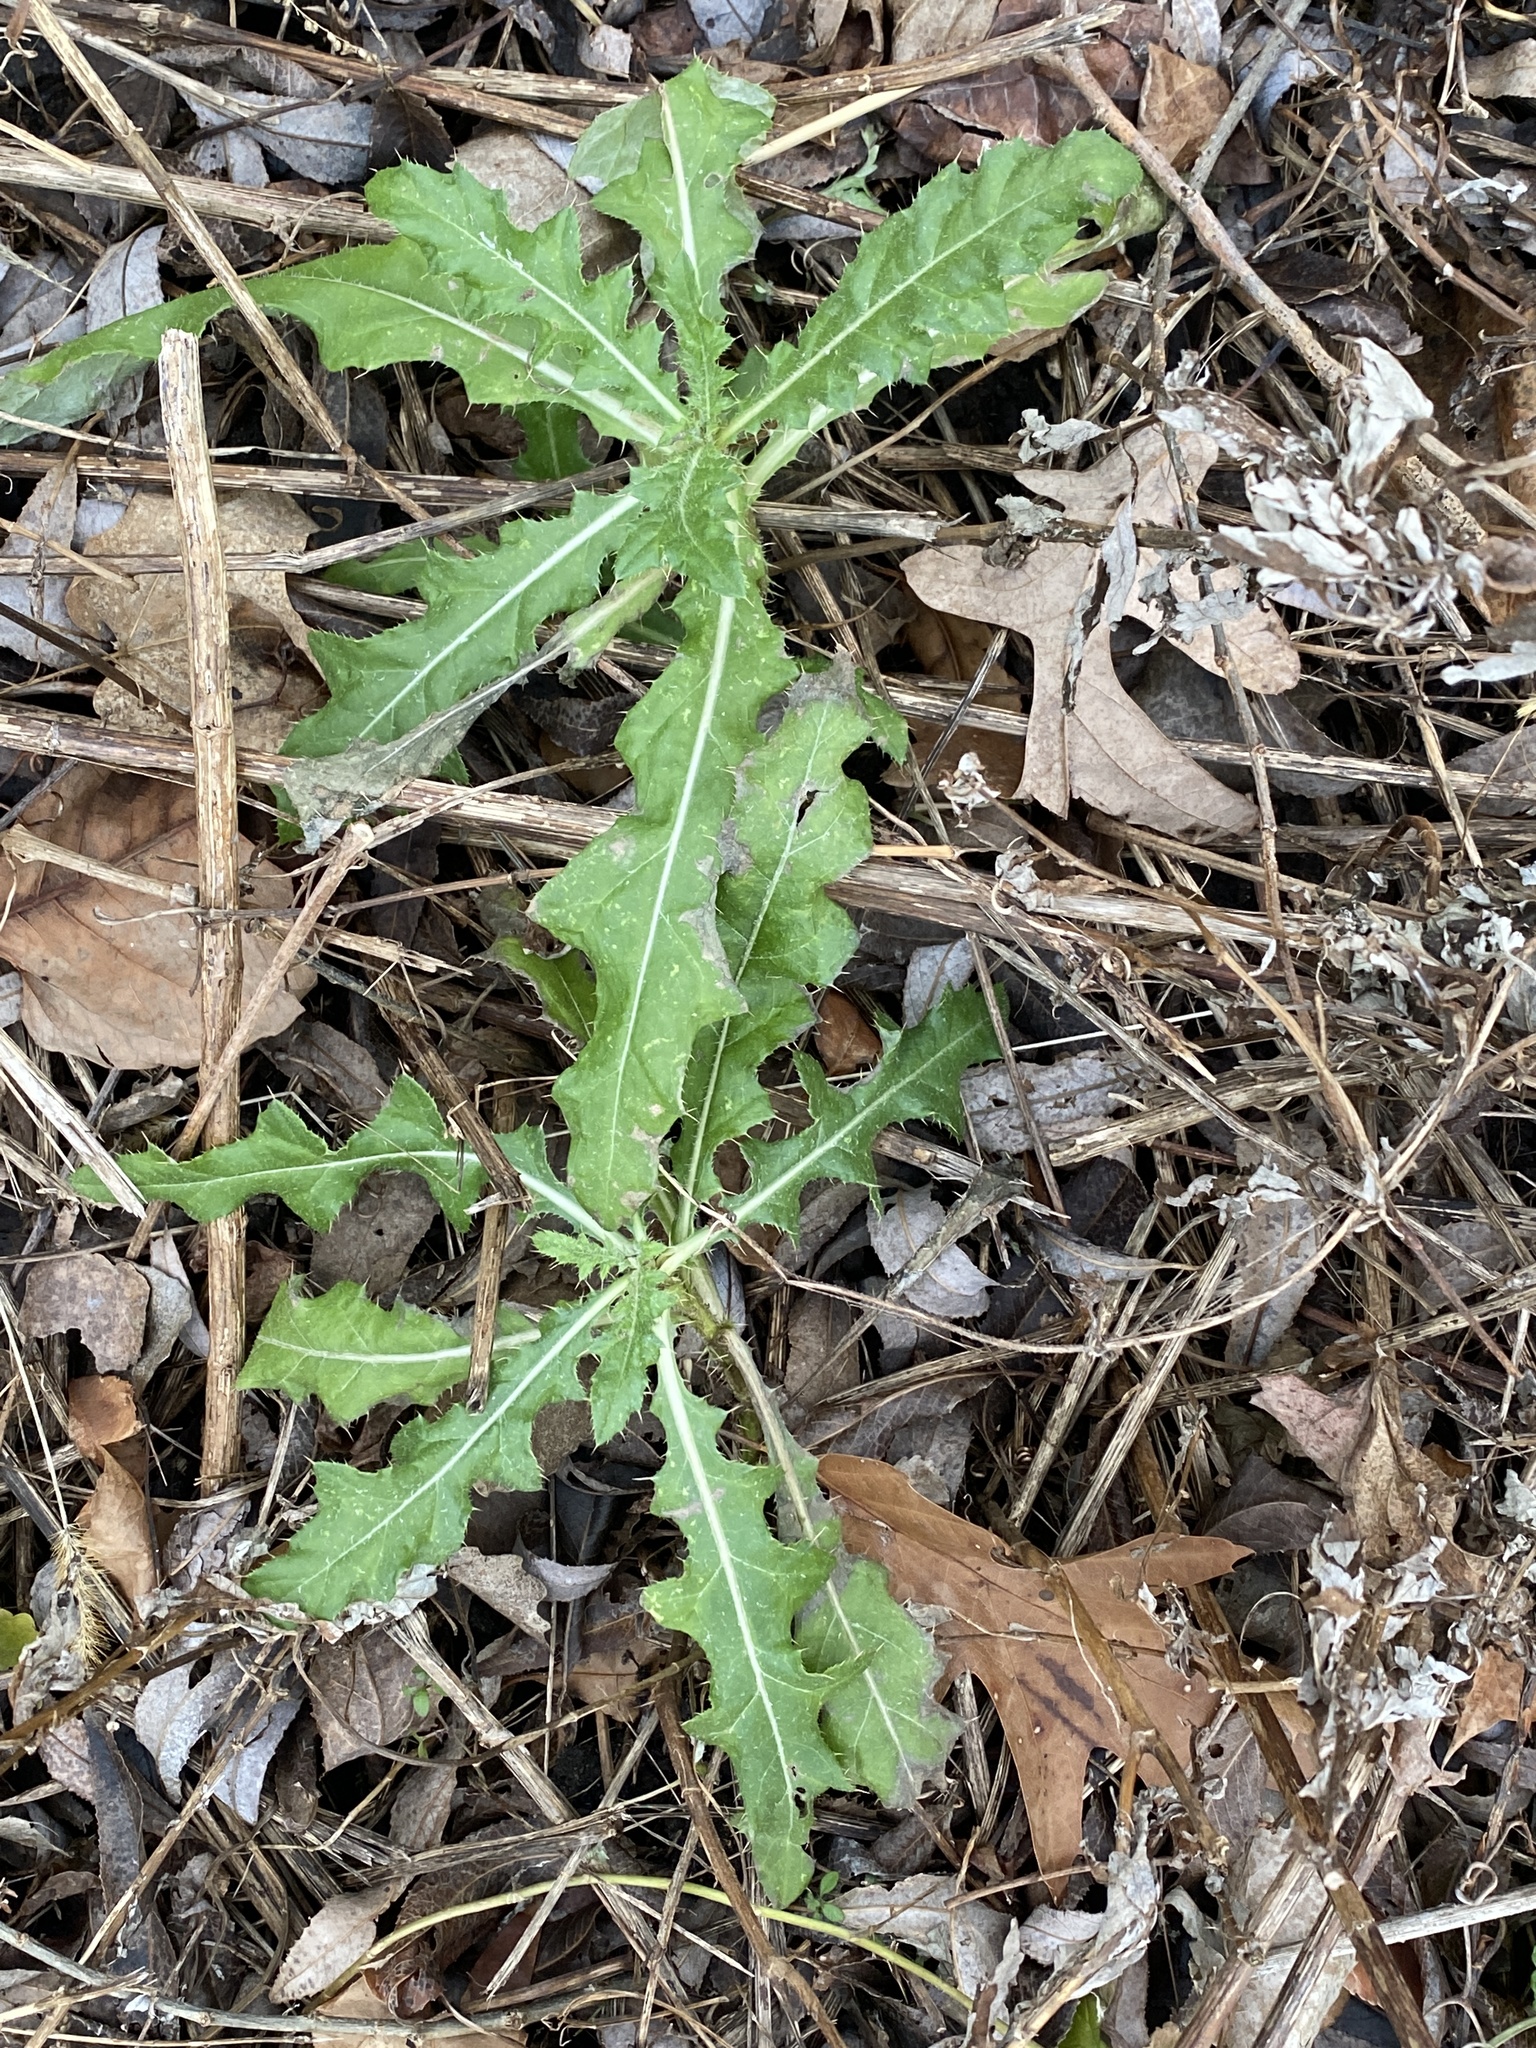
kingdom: Plantae
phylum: Tracheophyta
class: Magnoliopsida
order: Asterales
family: Asteraceae
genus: Cirsium
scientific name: Cirsium arvense
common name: Creeping thistle
